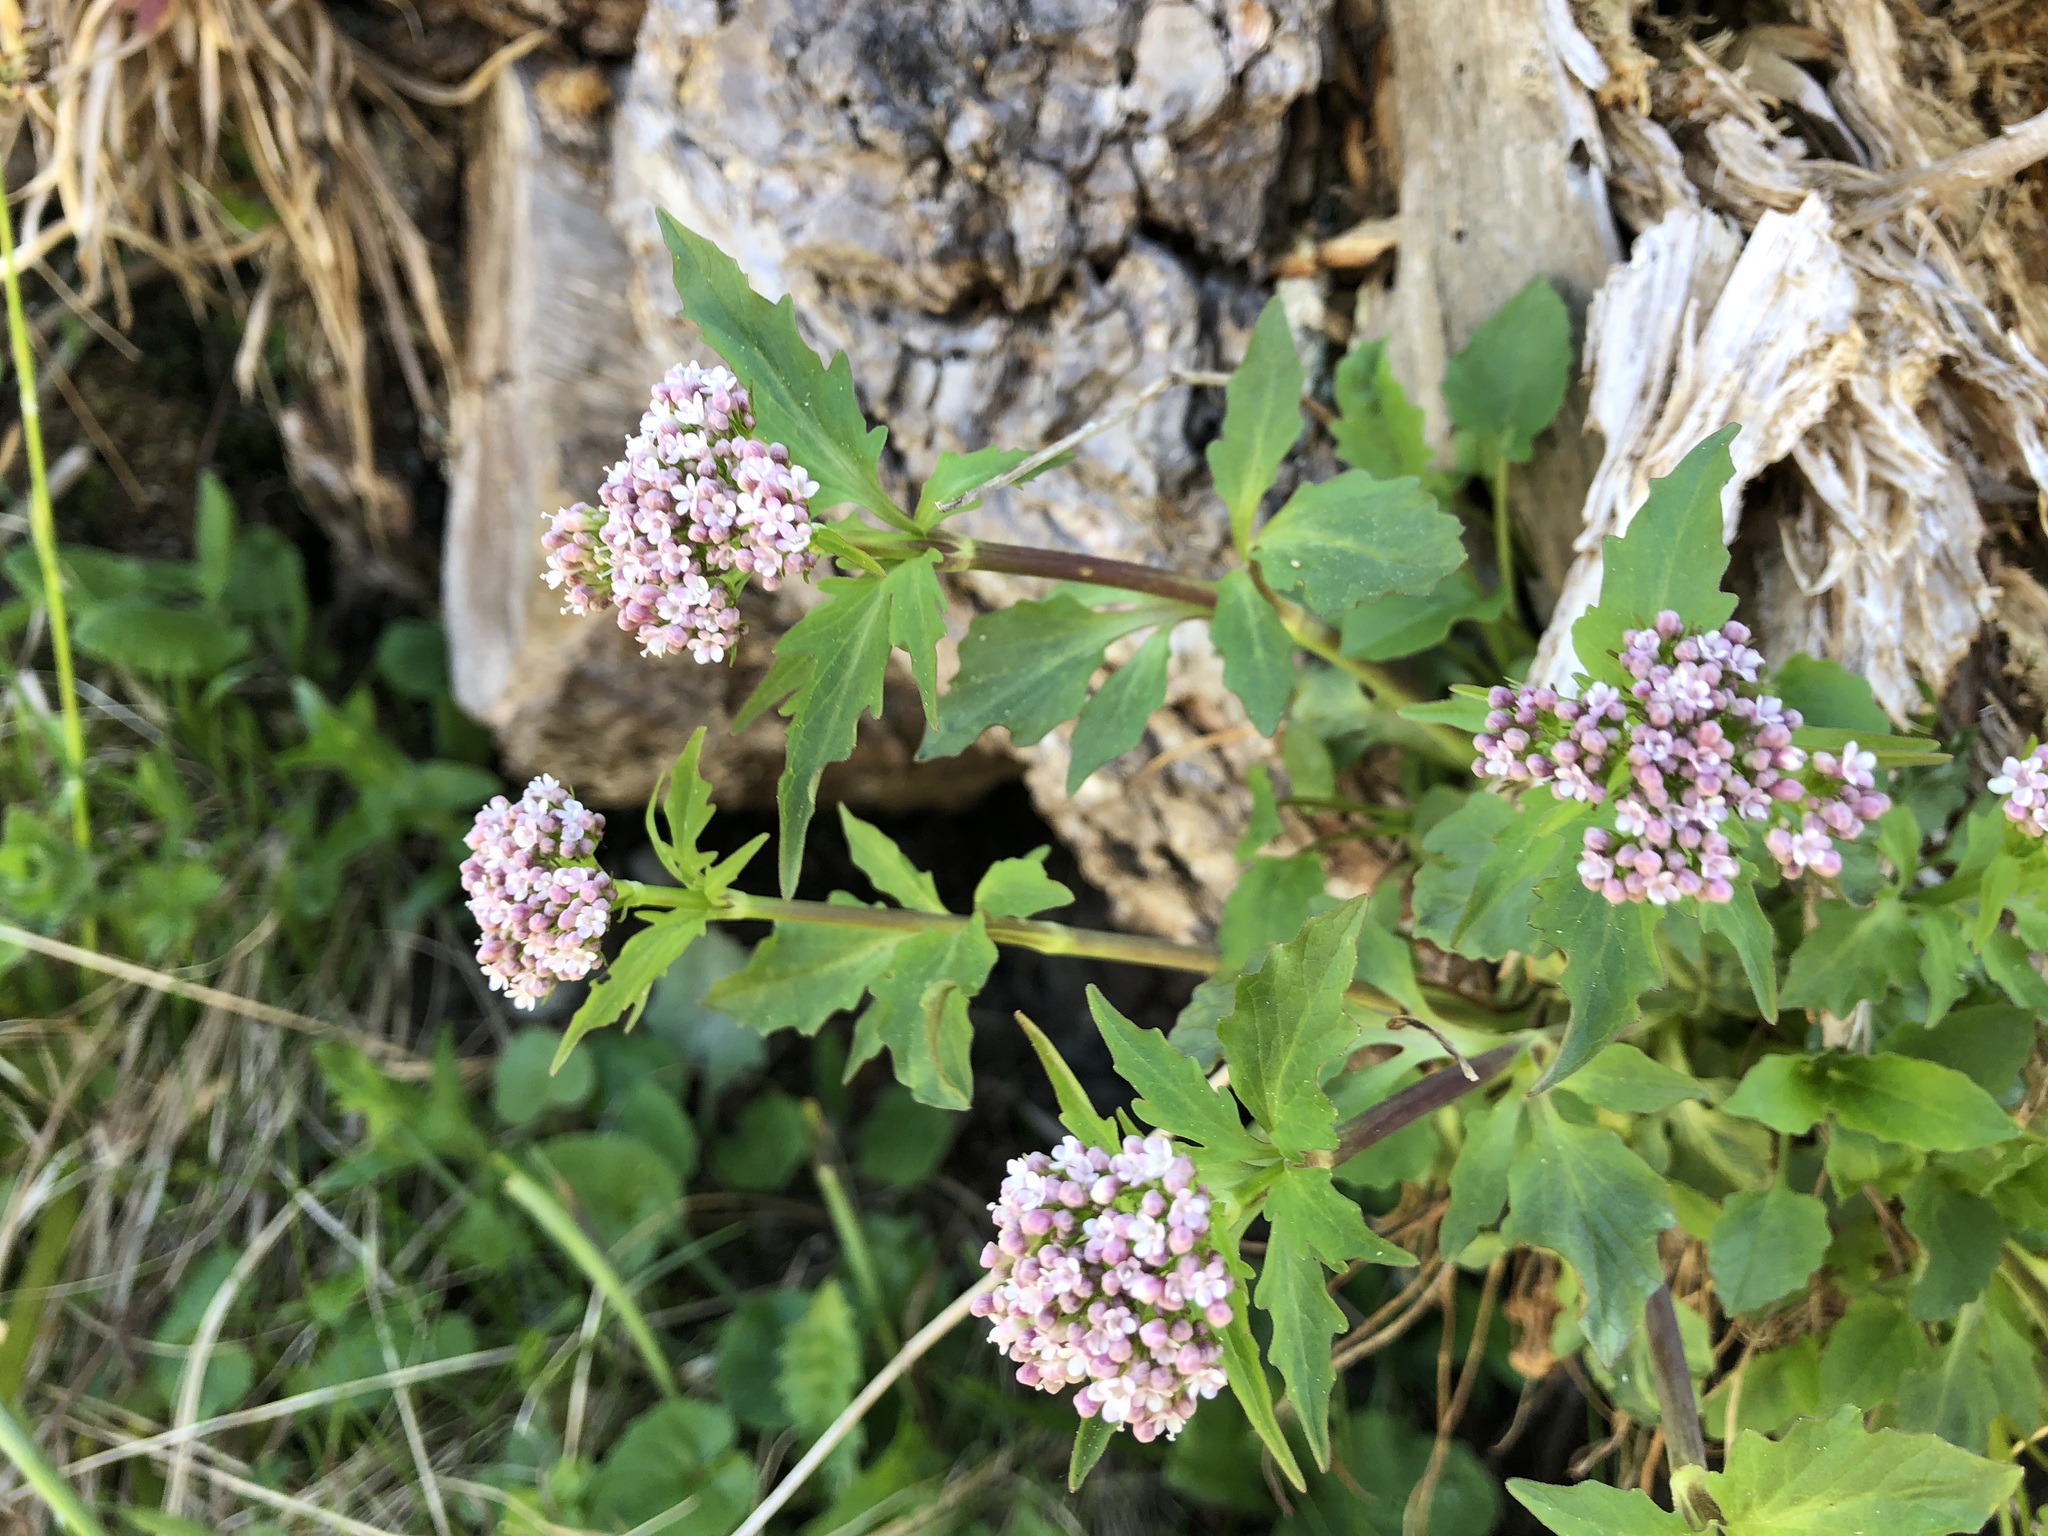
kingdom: Plantae
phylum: Tracheophyta
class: Magnoliopsida
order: Dipsacales
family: Caprifoliaceae
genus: Valeriana
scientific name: Valeriana tripteris
